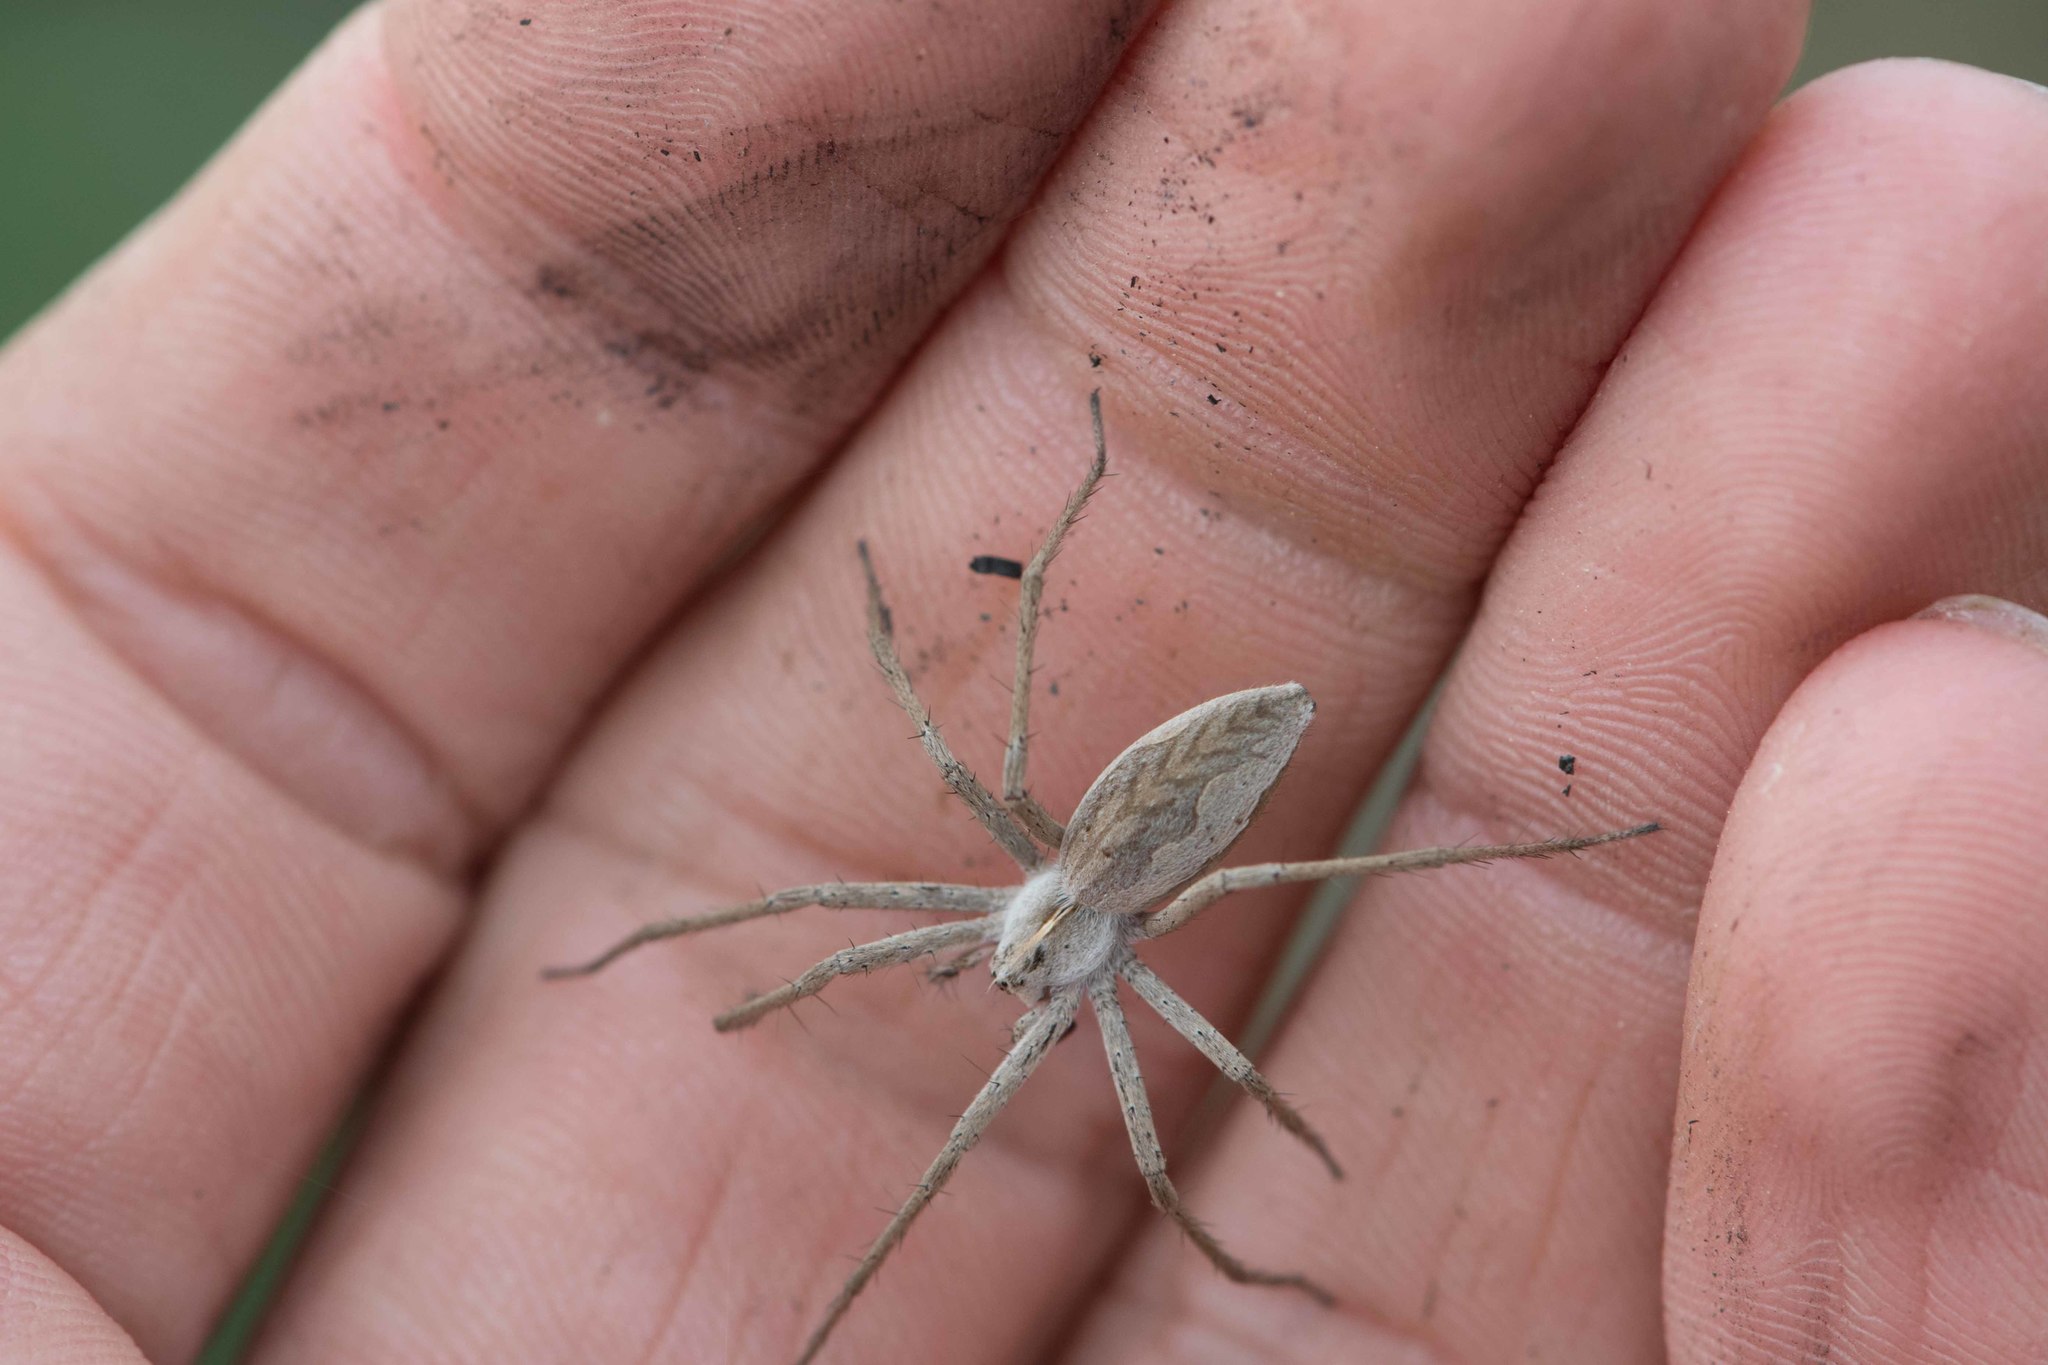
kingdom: Animalia
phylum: Arthropoda
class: Arachnida
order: Araneae
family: Pisauridae
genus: Pisaura
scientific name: Pisaura mirabilis
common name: Tent spider
